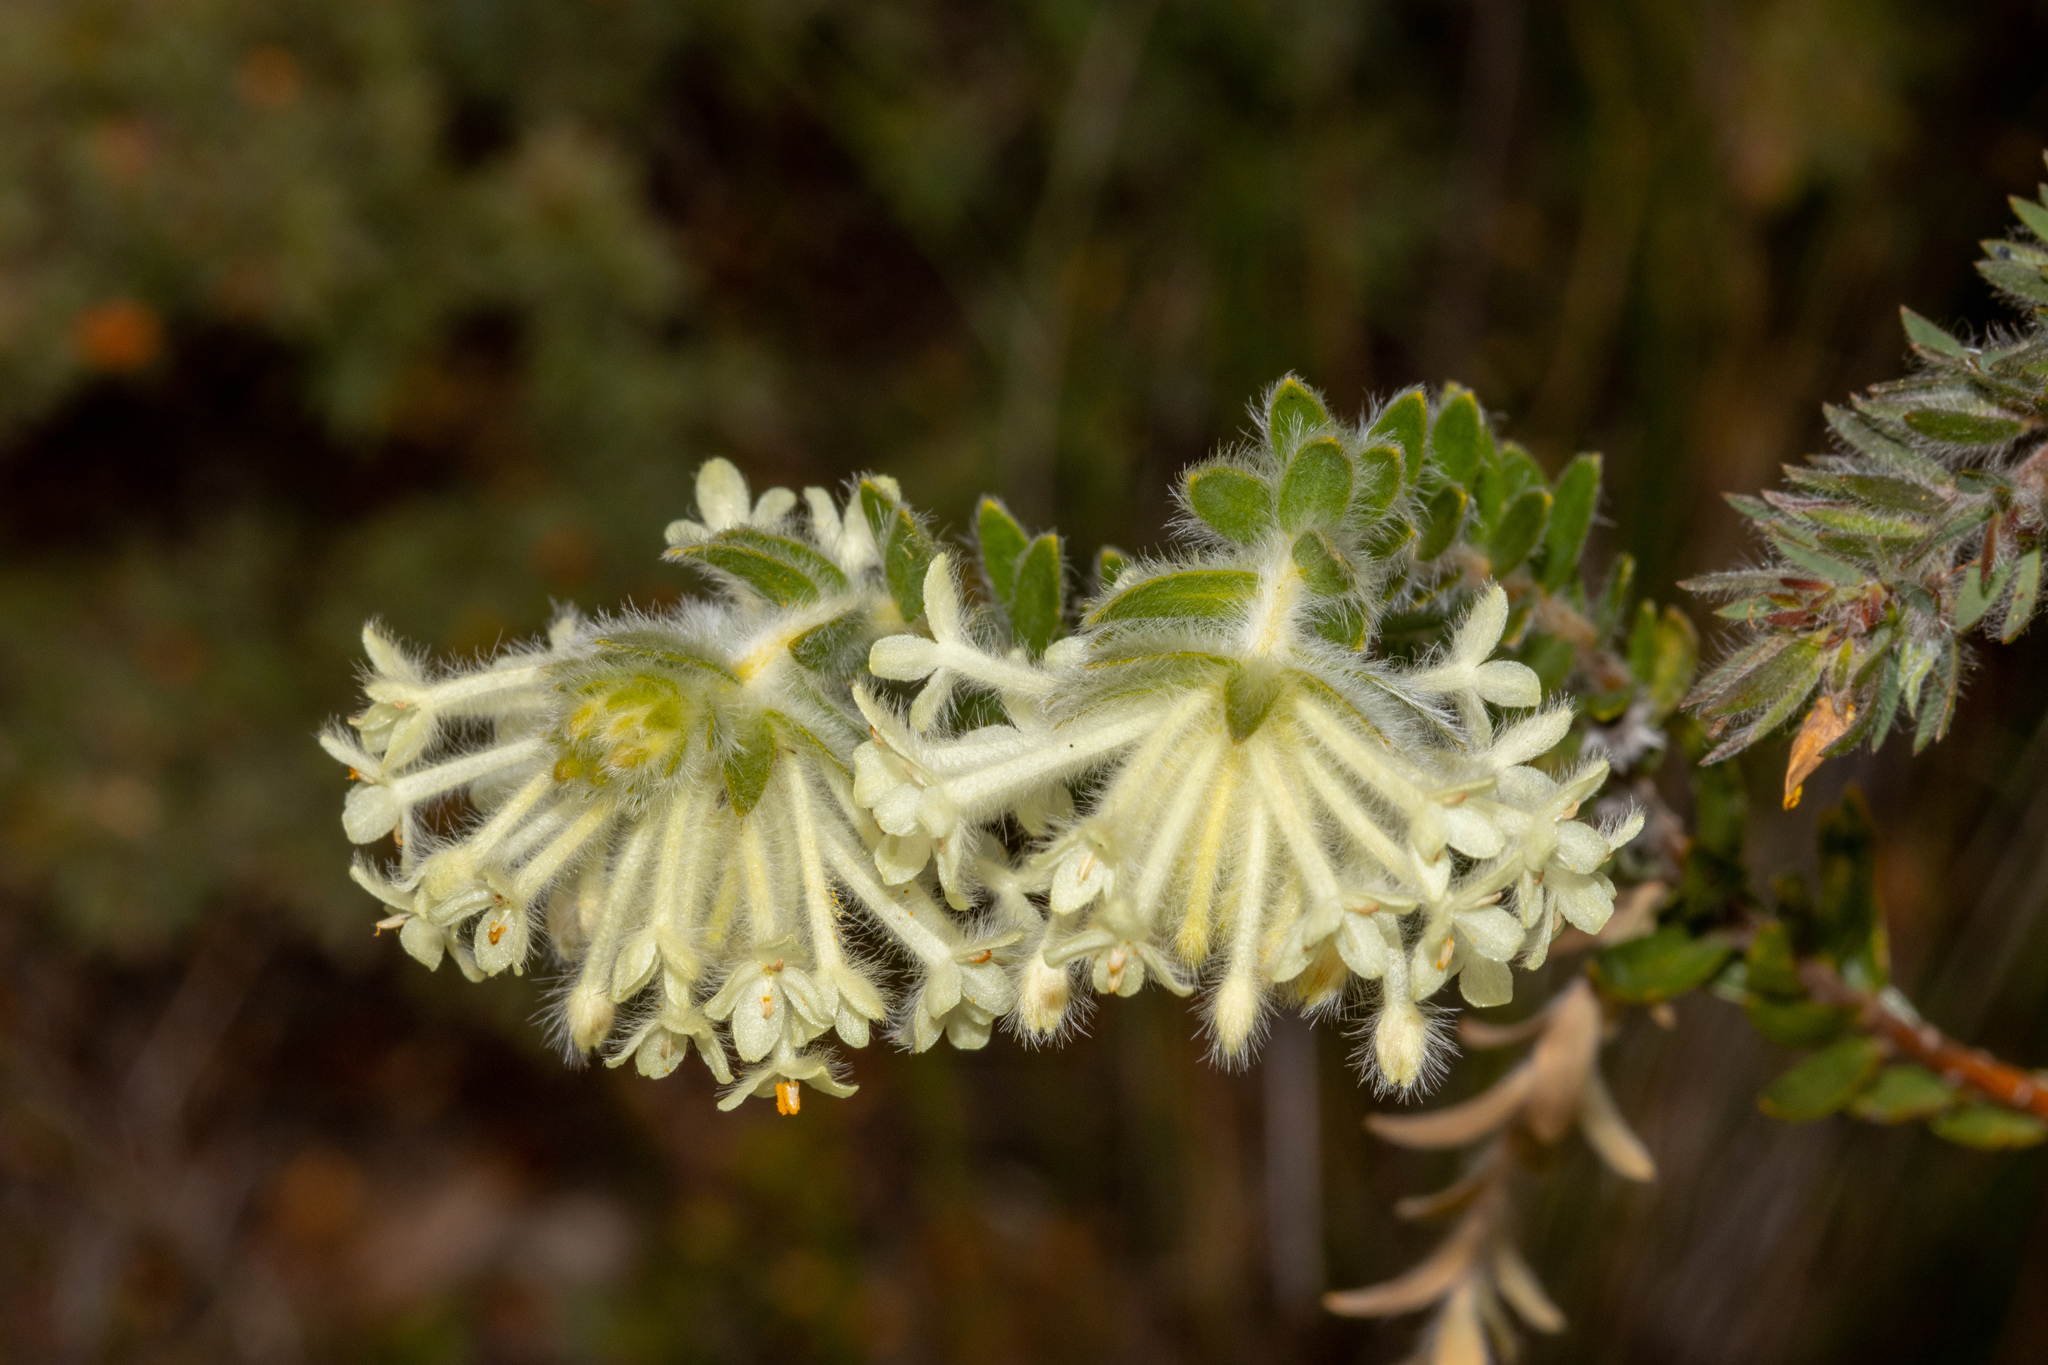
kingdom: Plantae
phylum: Tracheophyta
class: Magnoliopsida
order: Malvales
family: Thymelaeaceae
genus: Pimelea
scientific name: Pimelea octophylla
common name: Woolly riceflower
